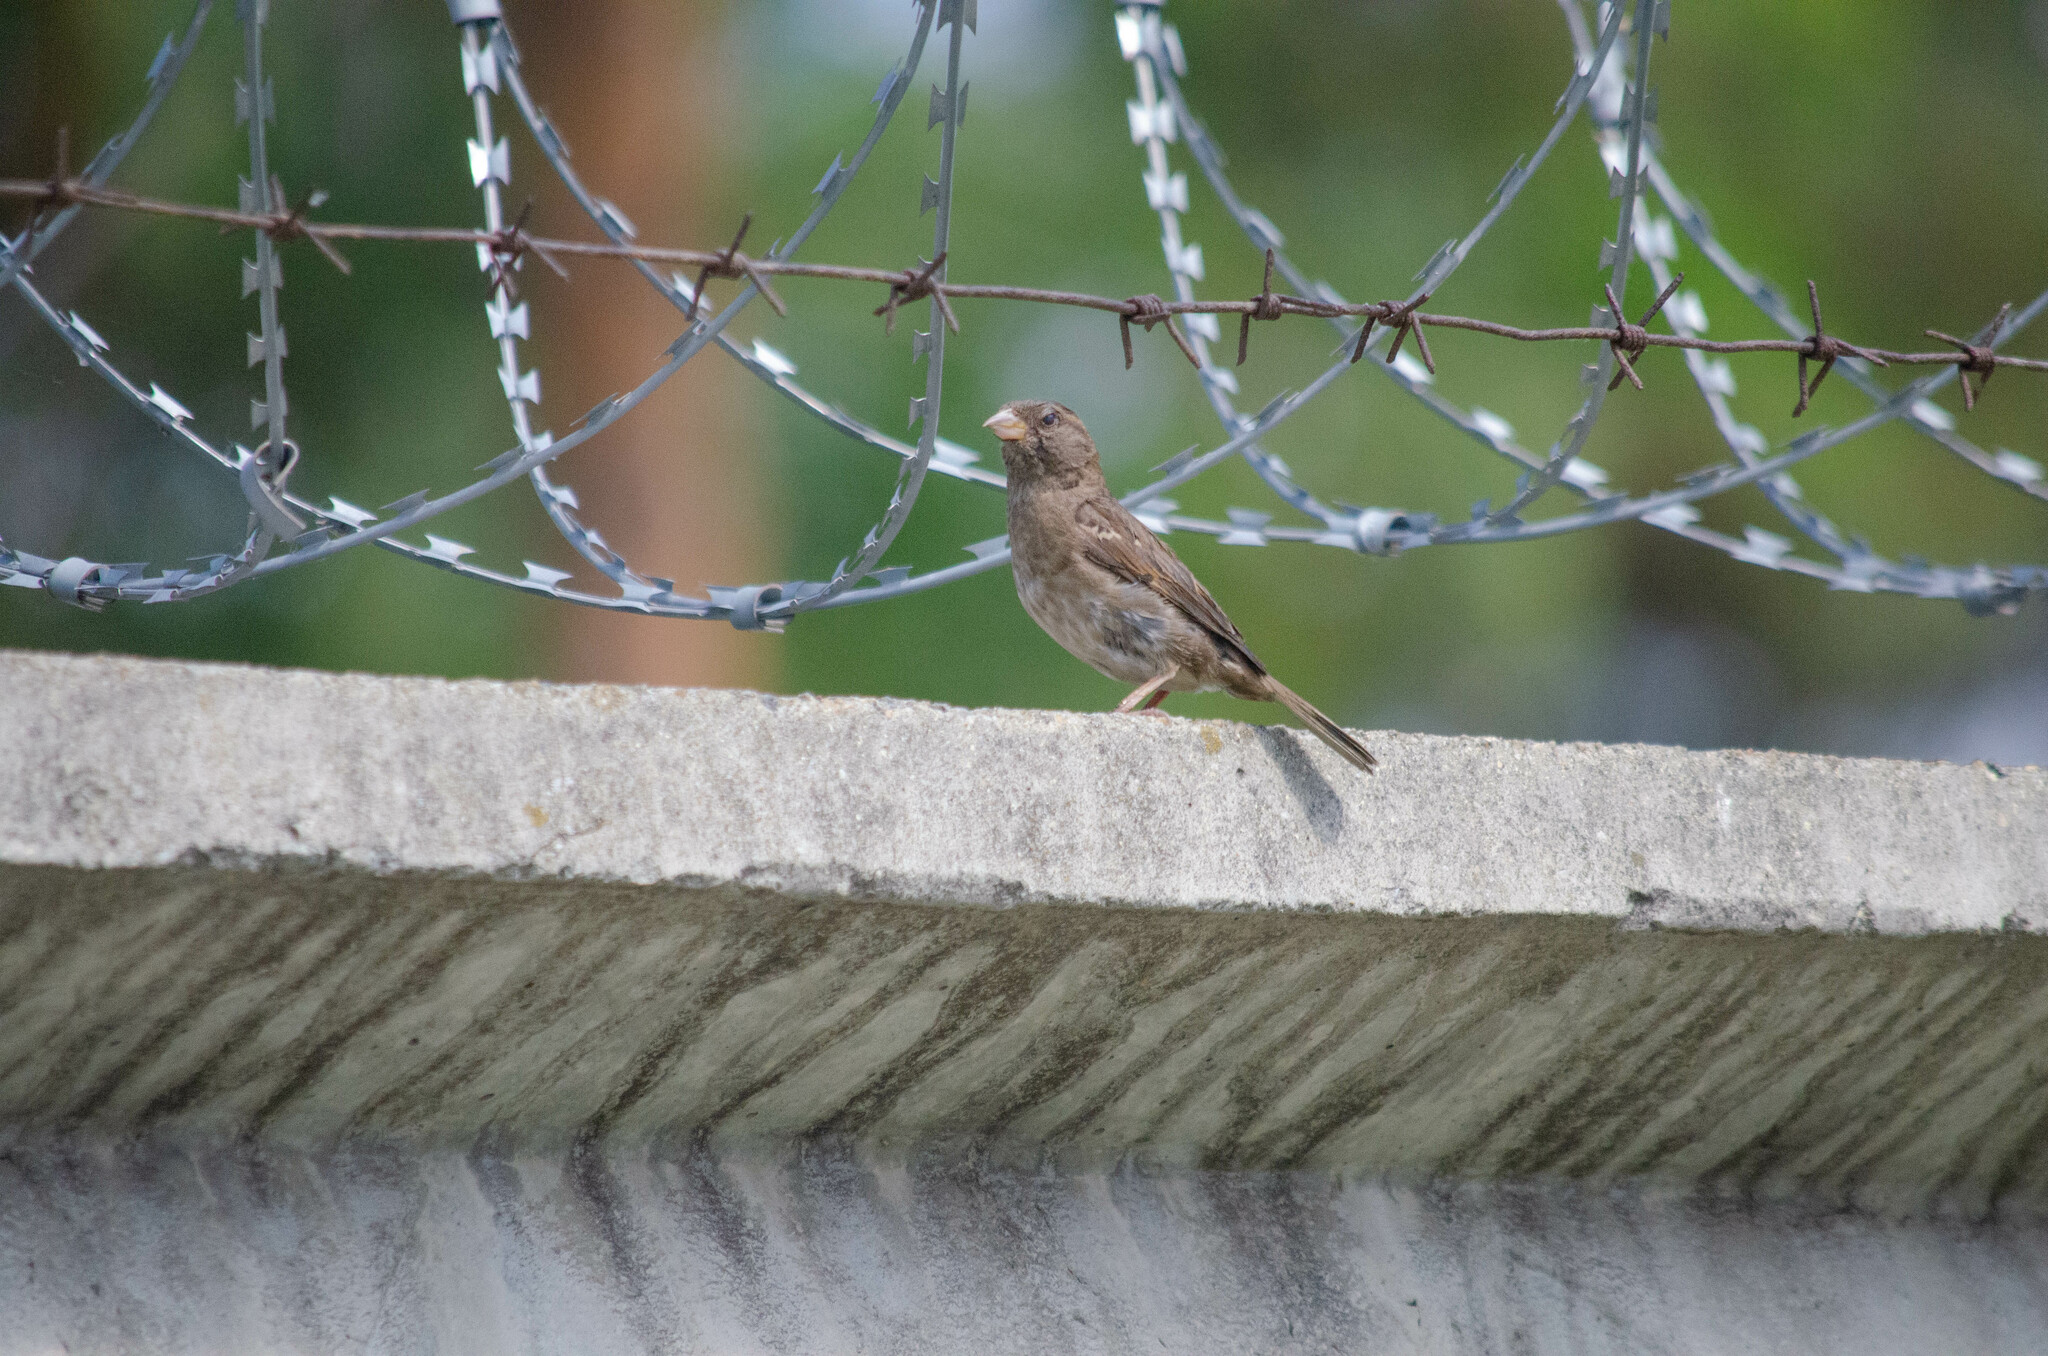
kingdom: Animalia
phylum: Chordata
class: Aves
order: Passeriformes
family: Passeridae
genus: Passer
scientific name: Passer domesticus
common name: House sparrow
